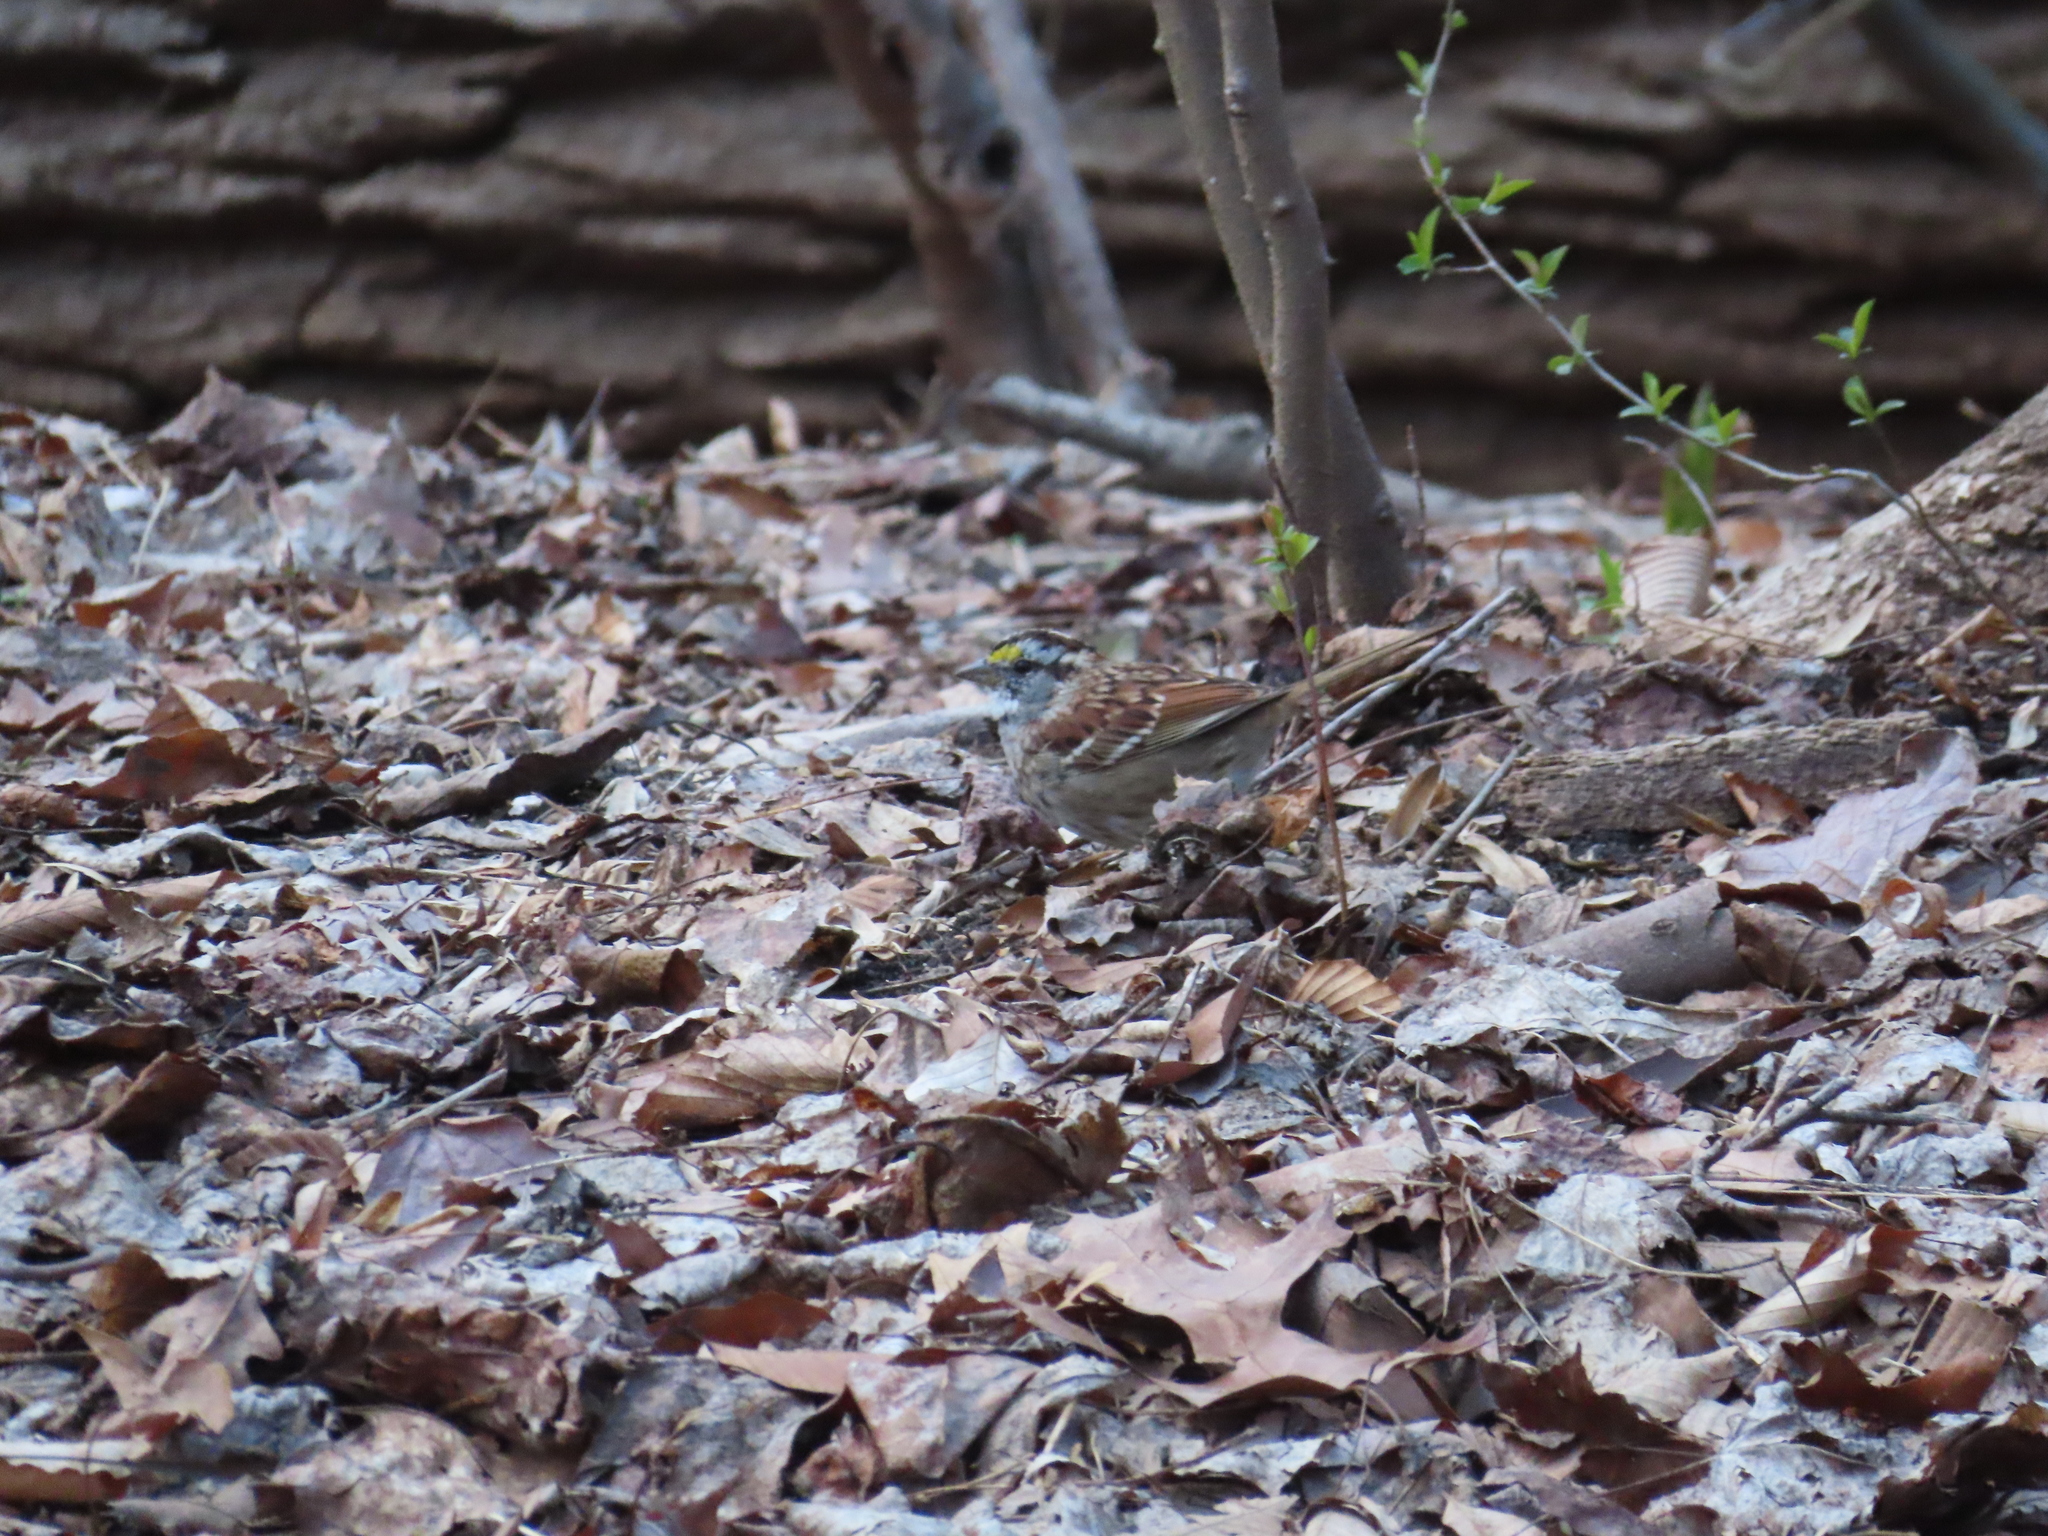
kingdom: Animalia
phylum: Chordata
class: Aves
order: Passeriformes
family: Passerellidae
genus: Zonotrichia
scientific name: Zonotrichia albicollis
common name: White-throated sparrow
